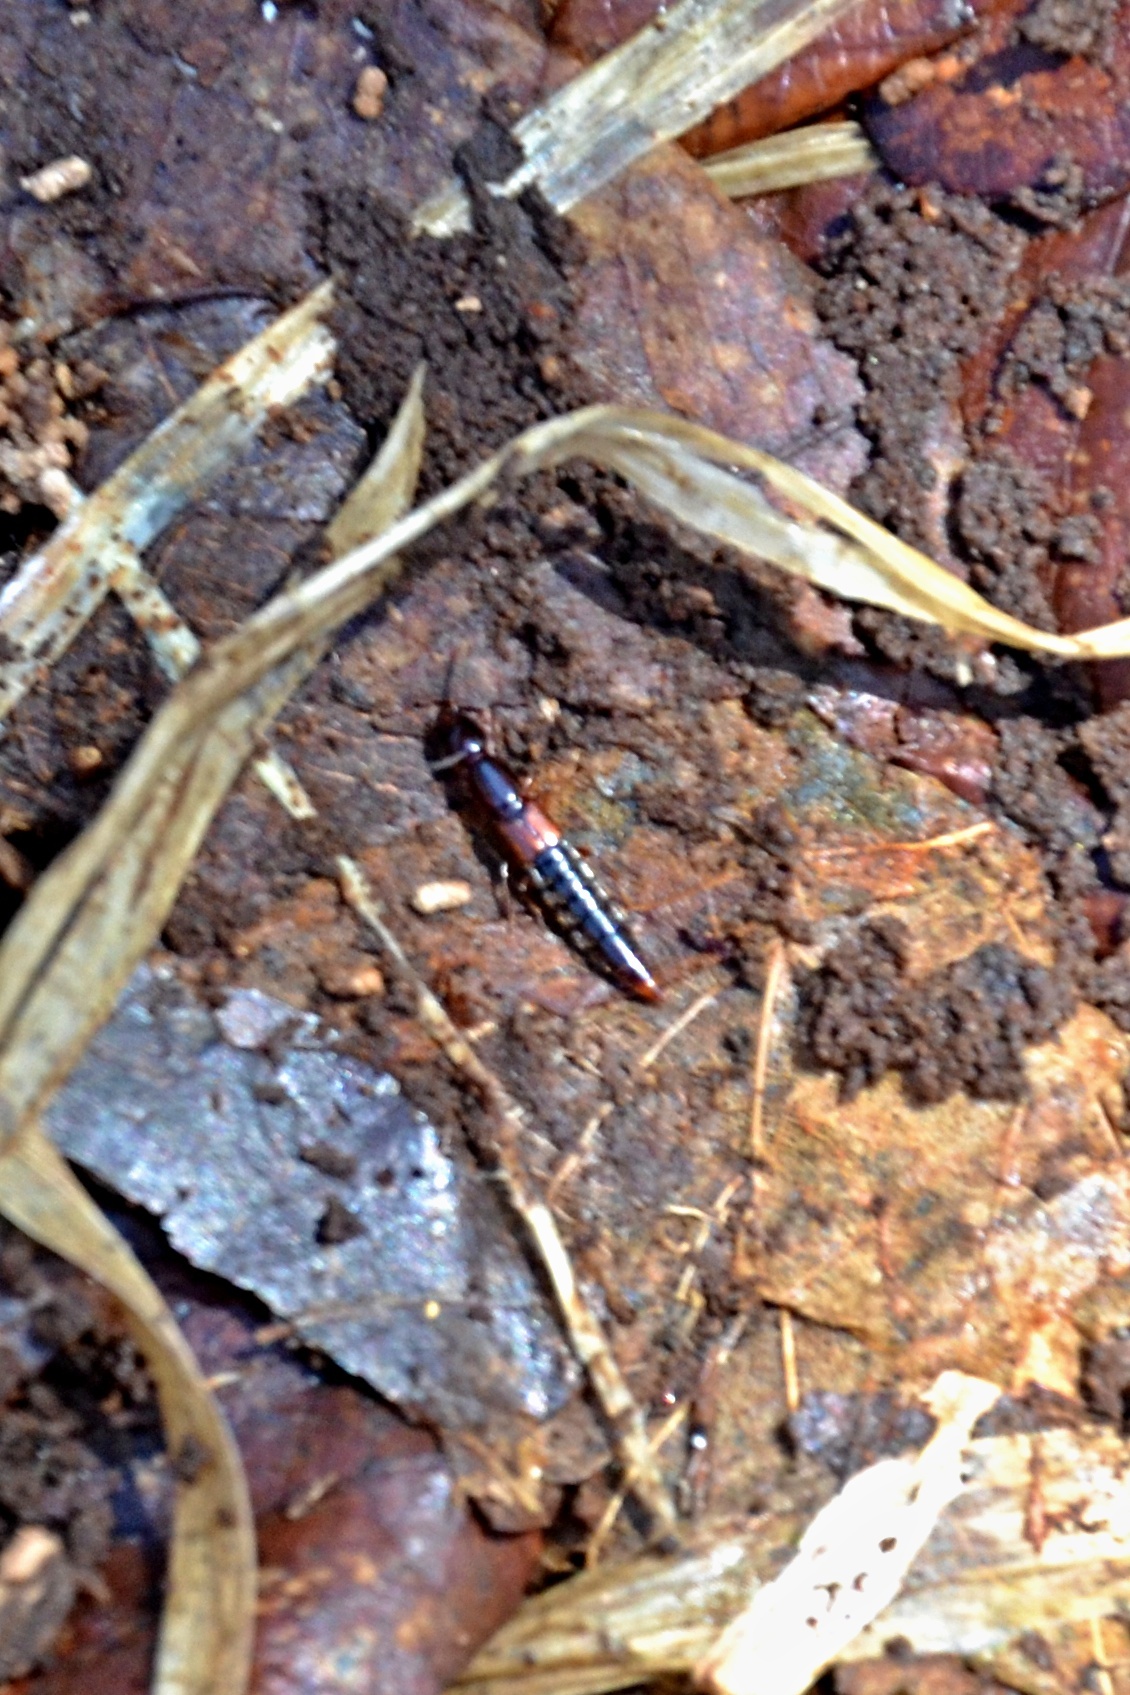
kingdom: Animalia
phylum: Arthropoda
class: Insecta
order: Coleoptera
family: Staphylinidae
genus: Othius
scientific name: Othius punctulatus
